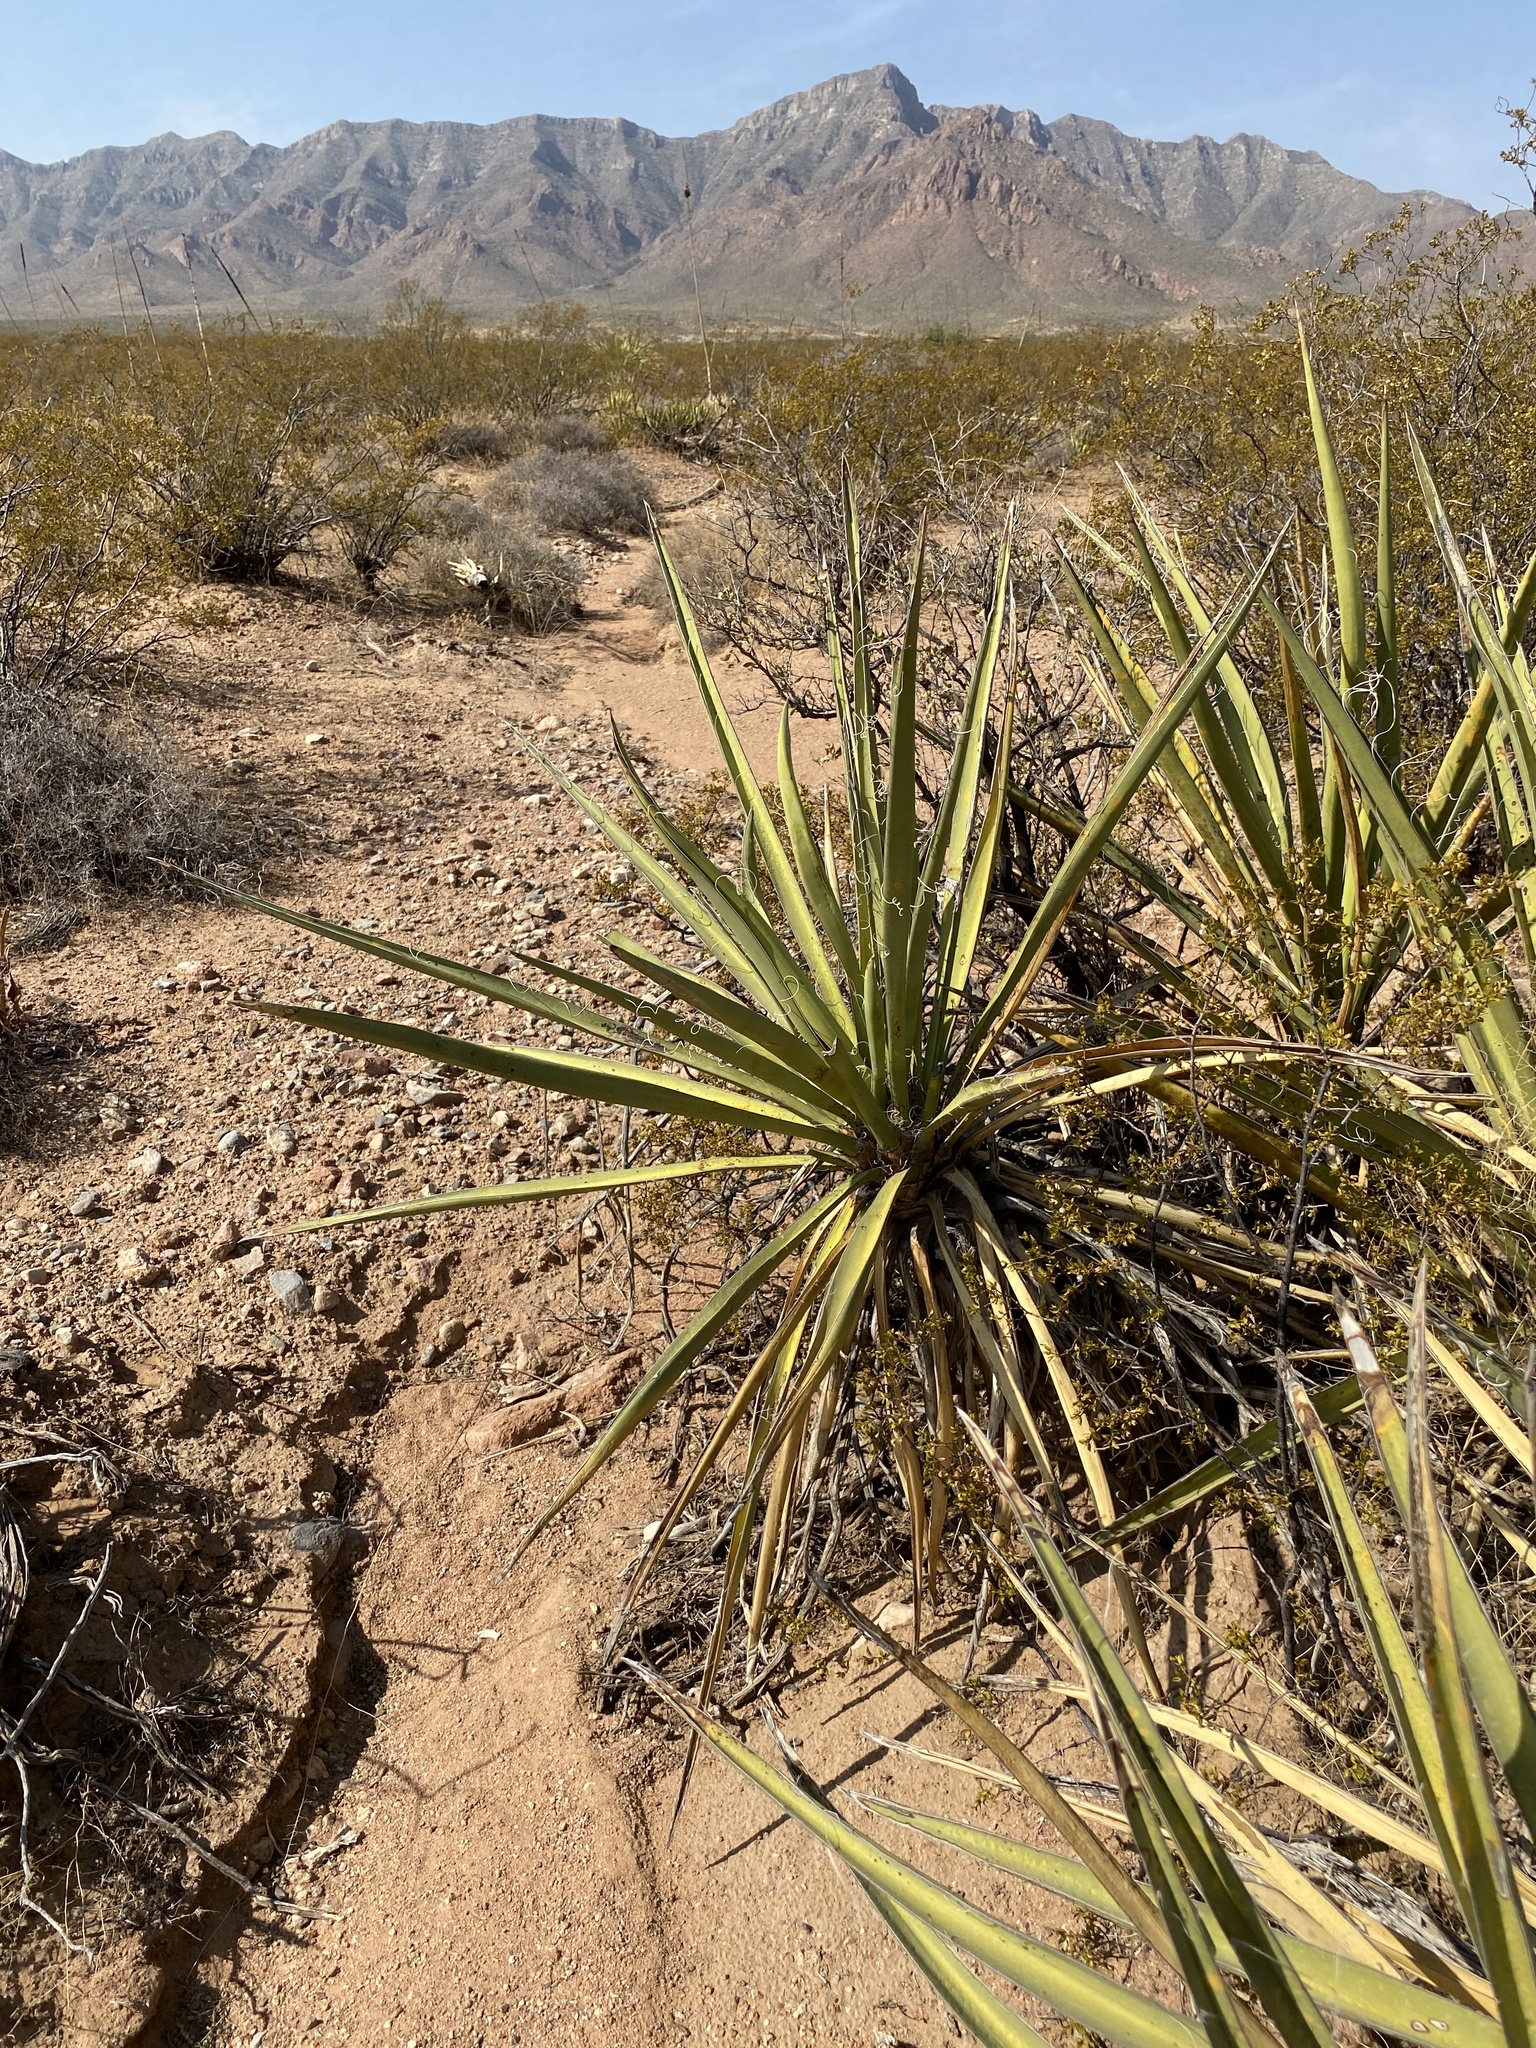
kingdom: Plantae
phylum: Tracheophyta
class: Liliopsida
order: Asparagales
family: Asparagaceae
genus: Yucca
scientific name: Yucca baccata
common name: Banana yucca
